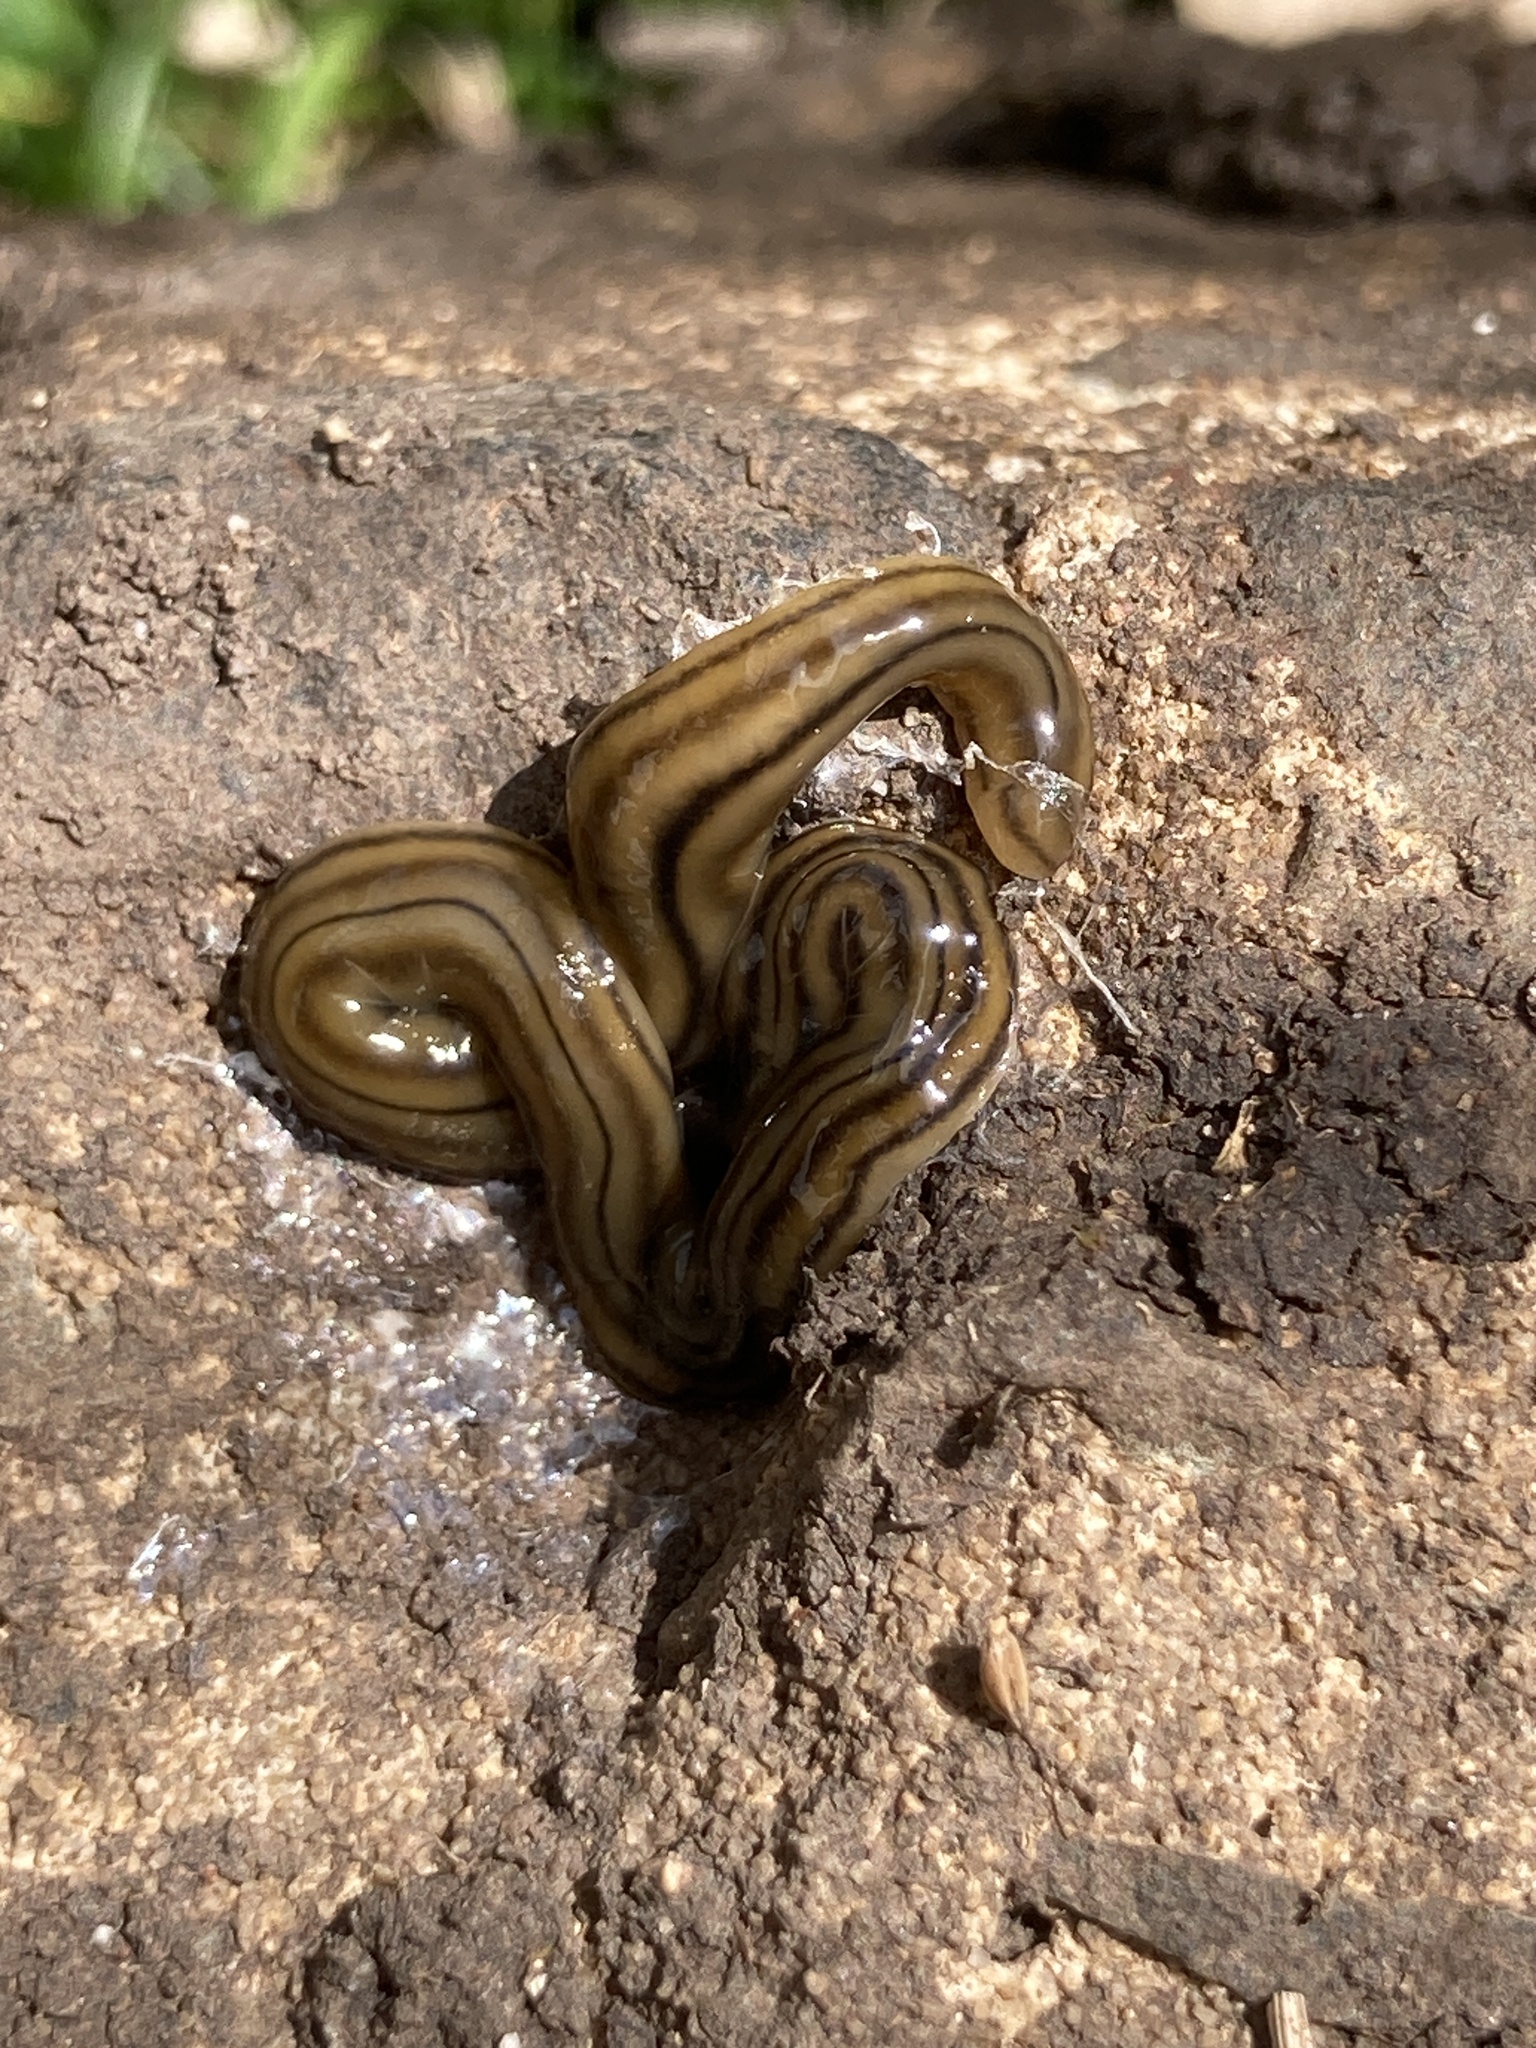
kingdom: Animalia
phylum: Platyhelminthes
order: Tricladida
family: Geoplanidae
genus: Bipalium
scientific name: Bipalium kewense
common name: Hammerhead flatworm
